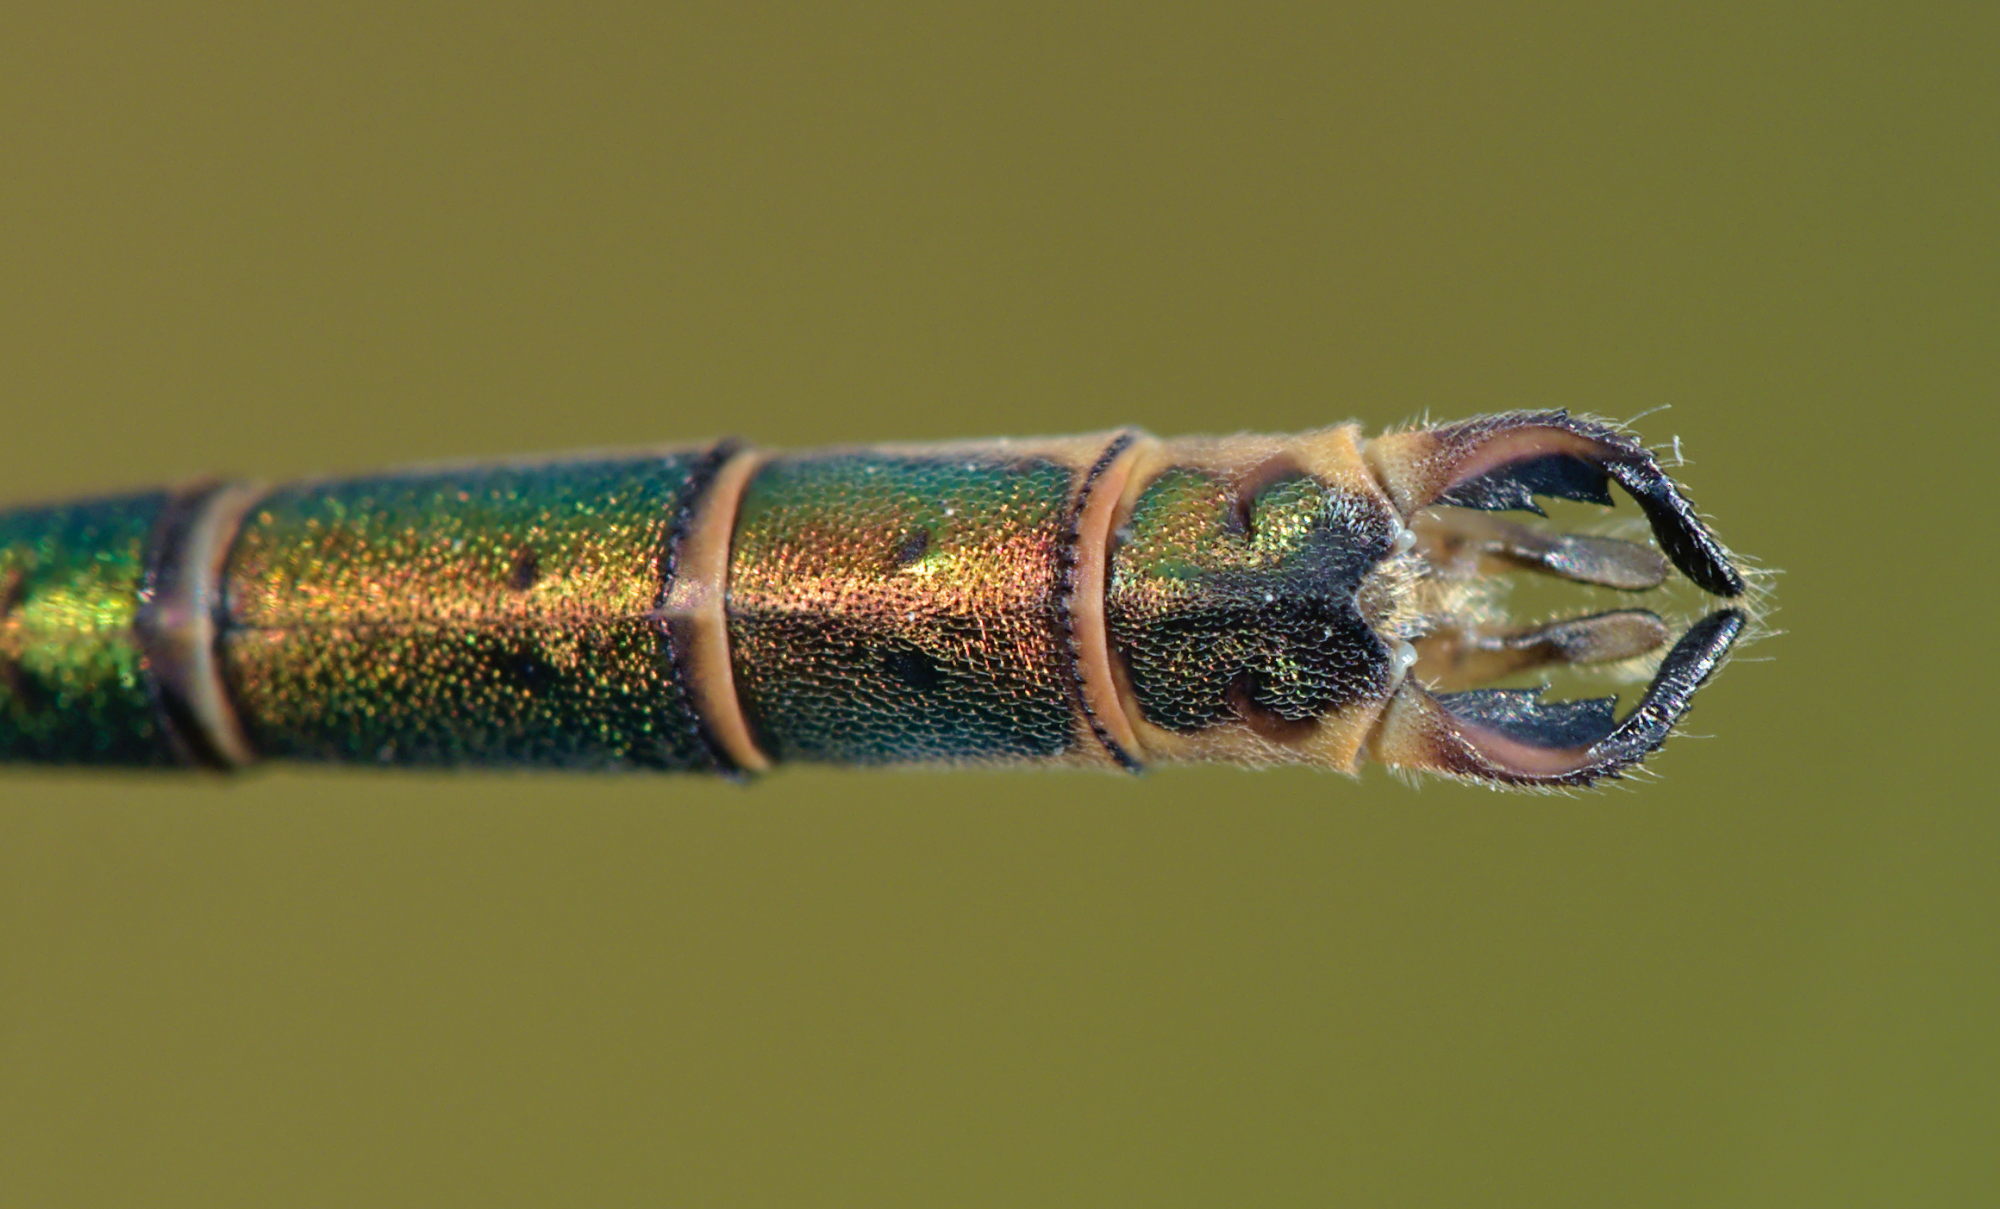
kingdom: Animalia
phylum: Arthropoda
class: Insecta
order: Odonata
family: Lestidae
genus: Lestes
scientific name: Lestes sponsa
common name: Common spreadwing
